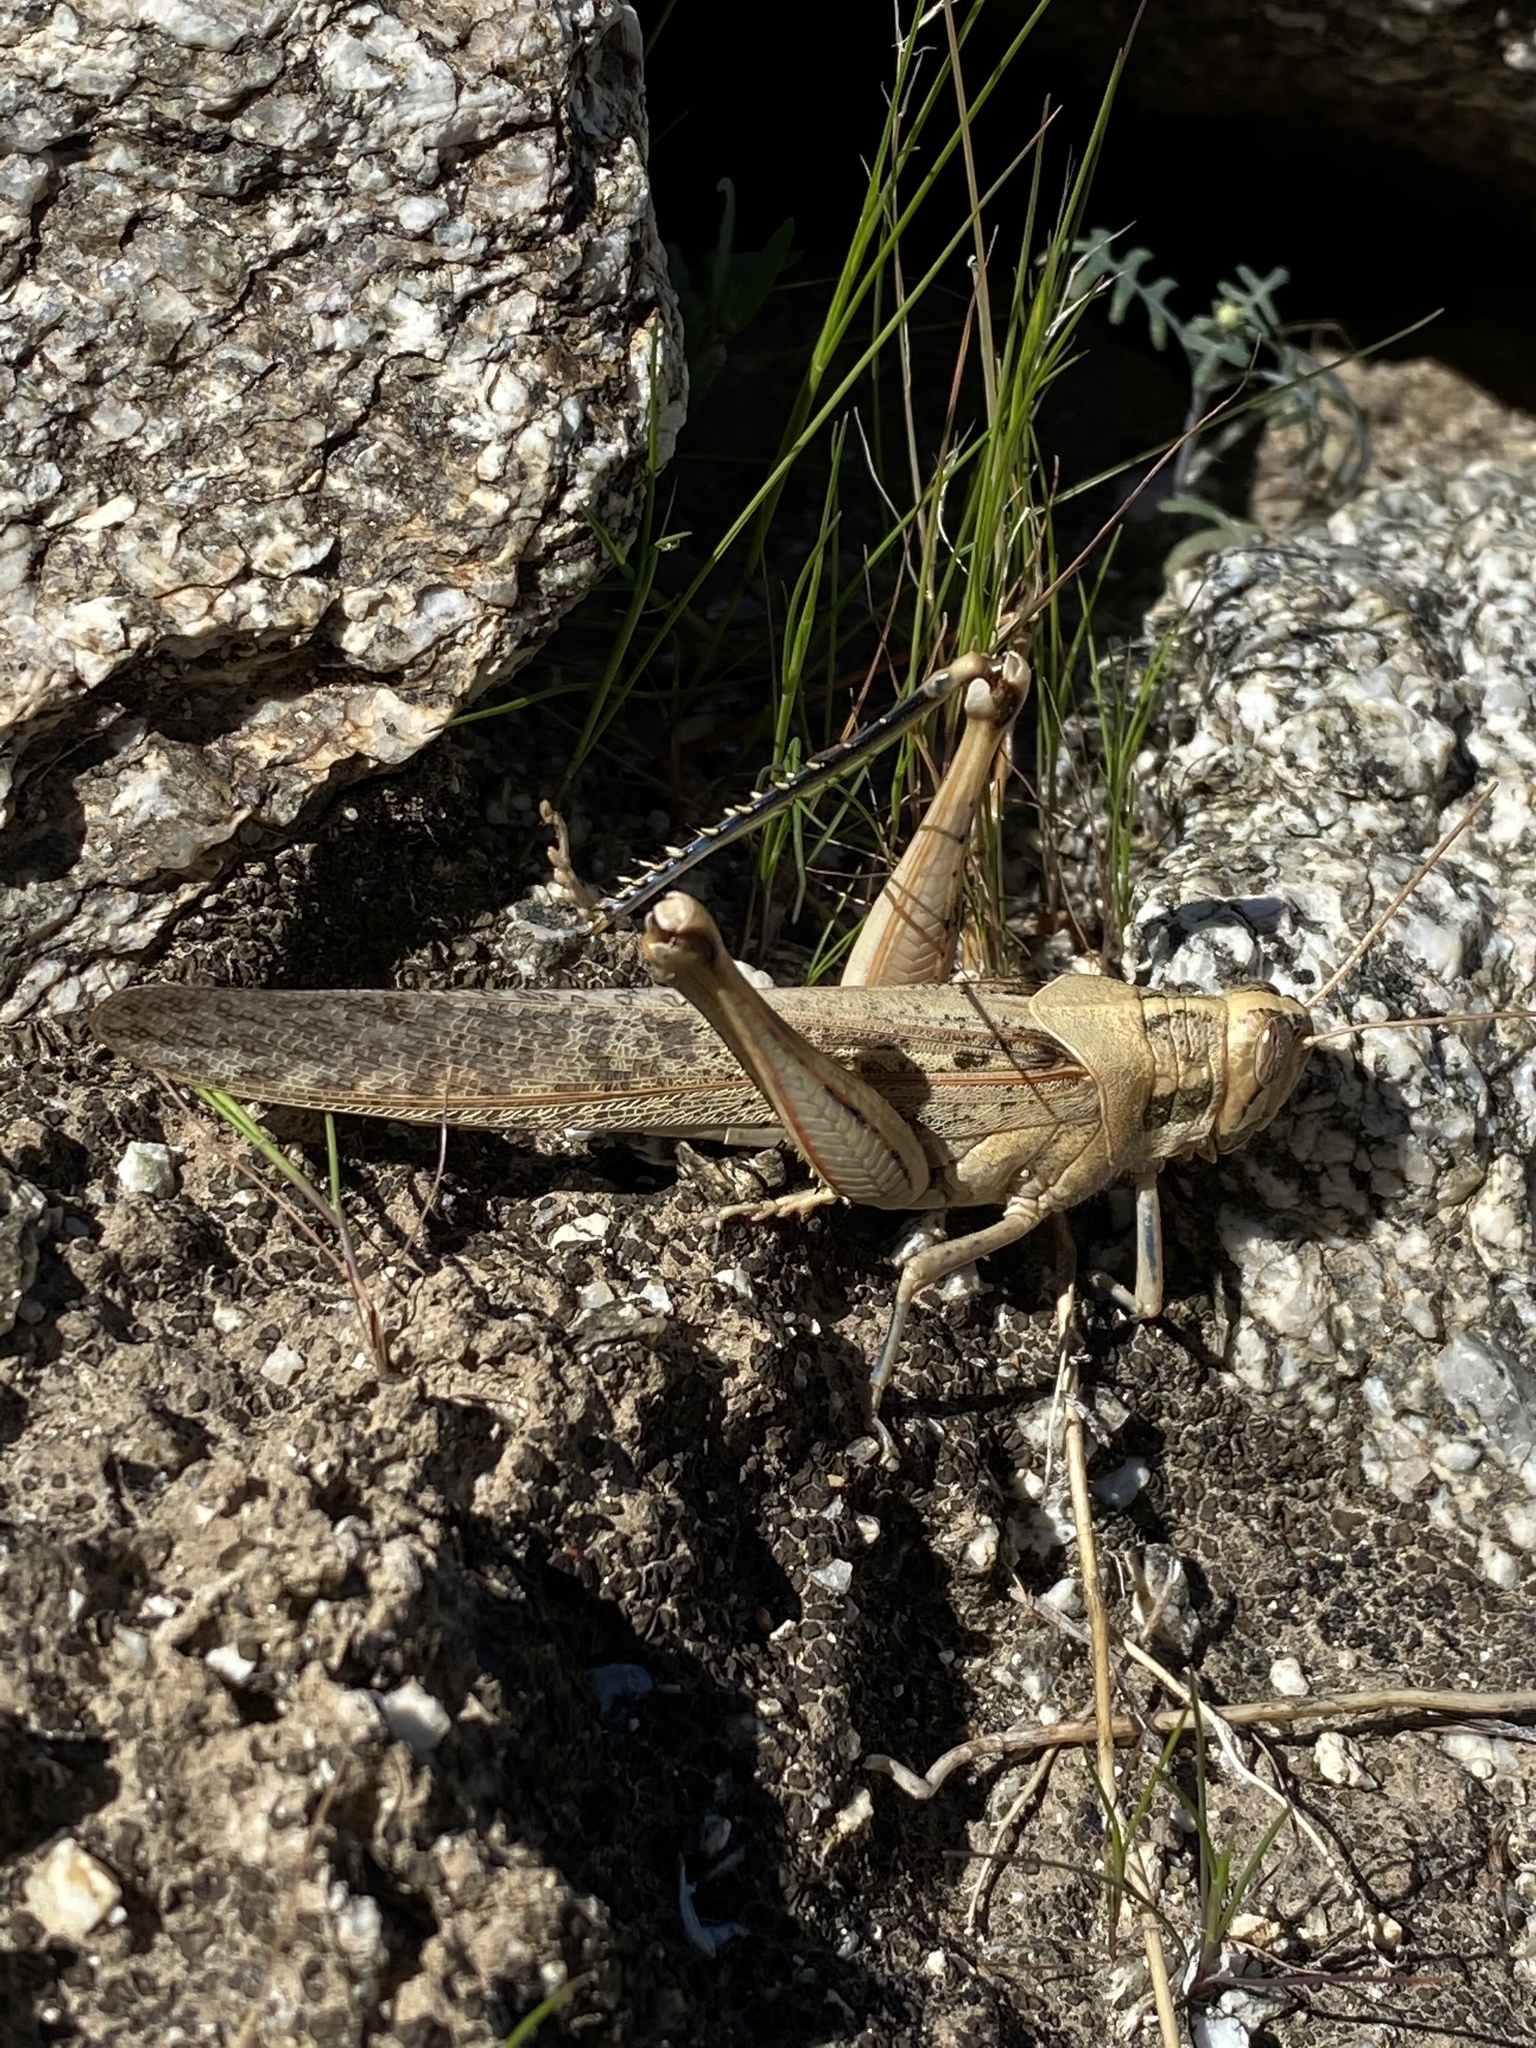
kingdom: Animalia
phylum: Arthropoda
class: Insecta
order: Orthoptera
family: Acrididae
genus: Schistocerca
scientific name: Schistocerca nitens
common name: Vagrant grasshopper
